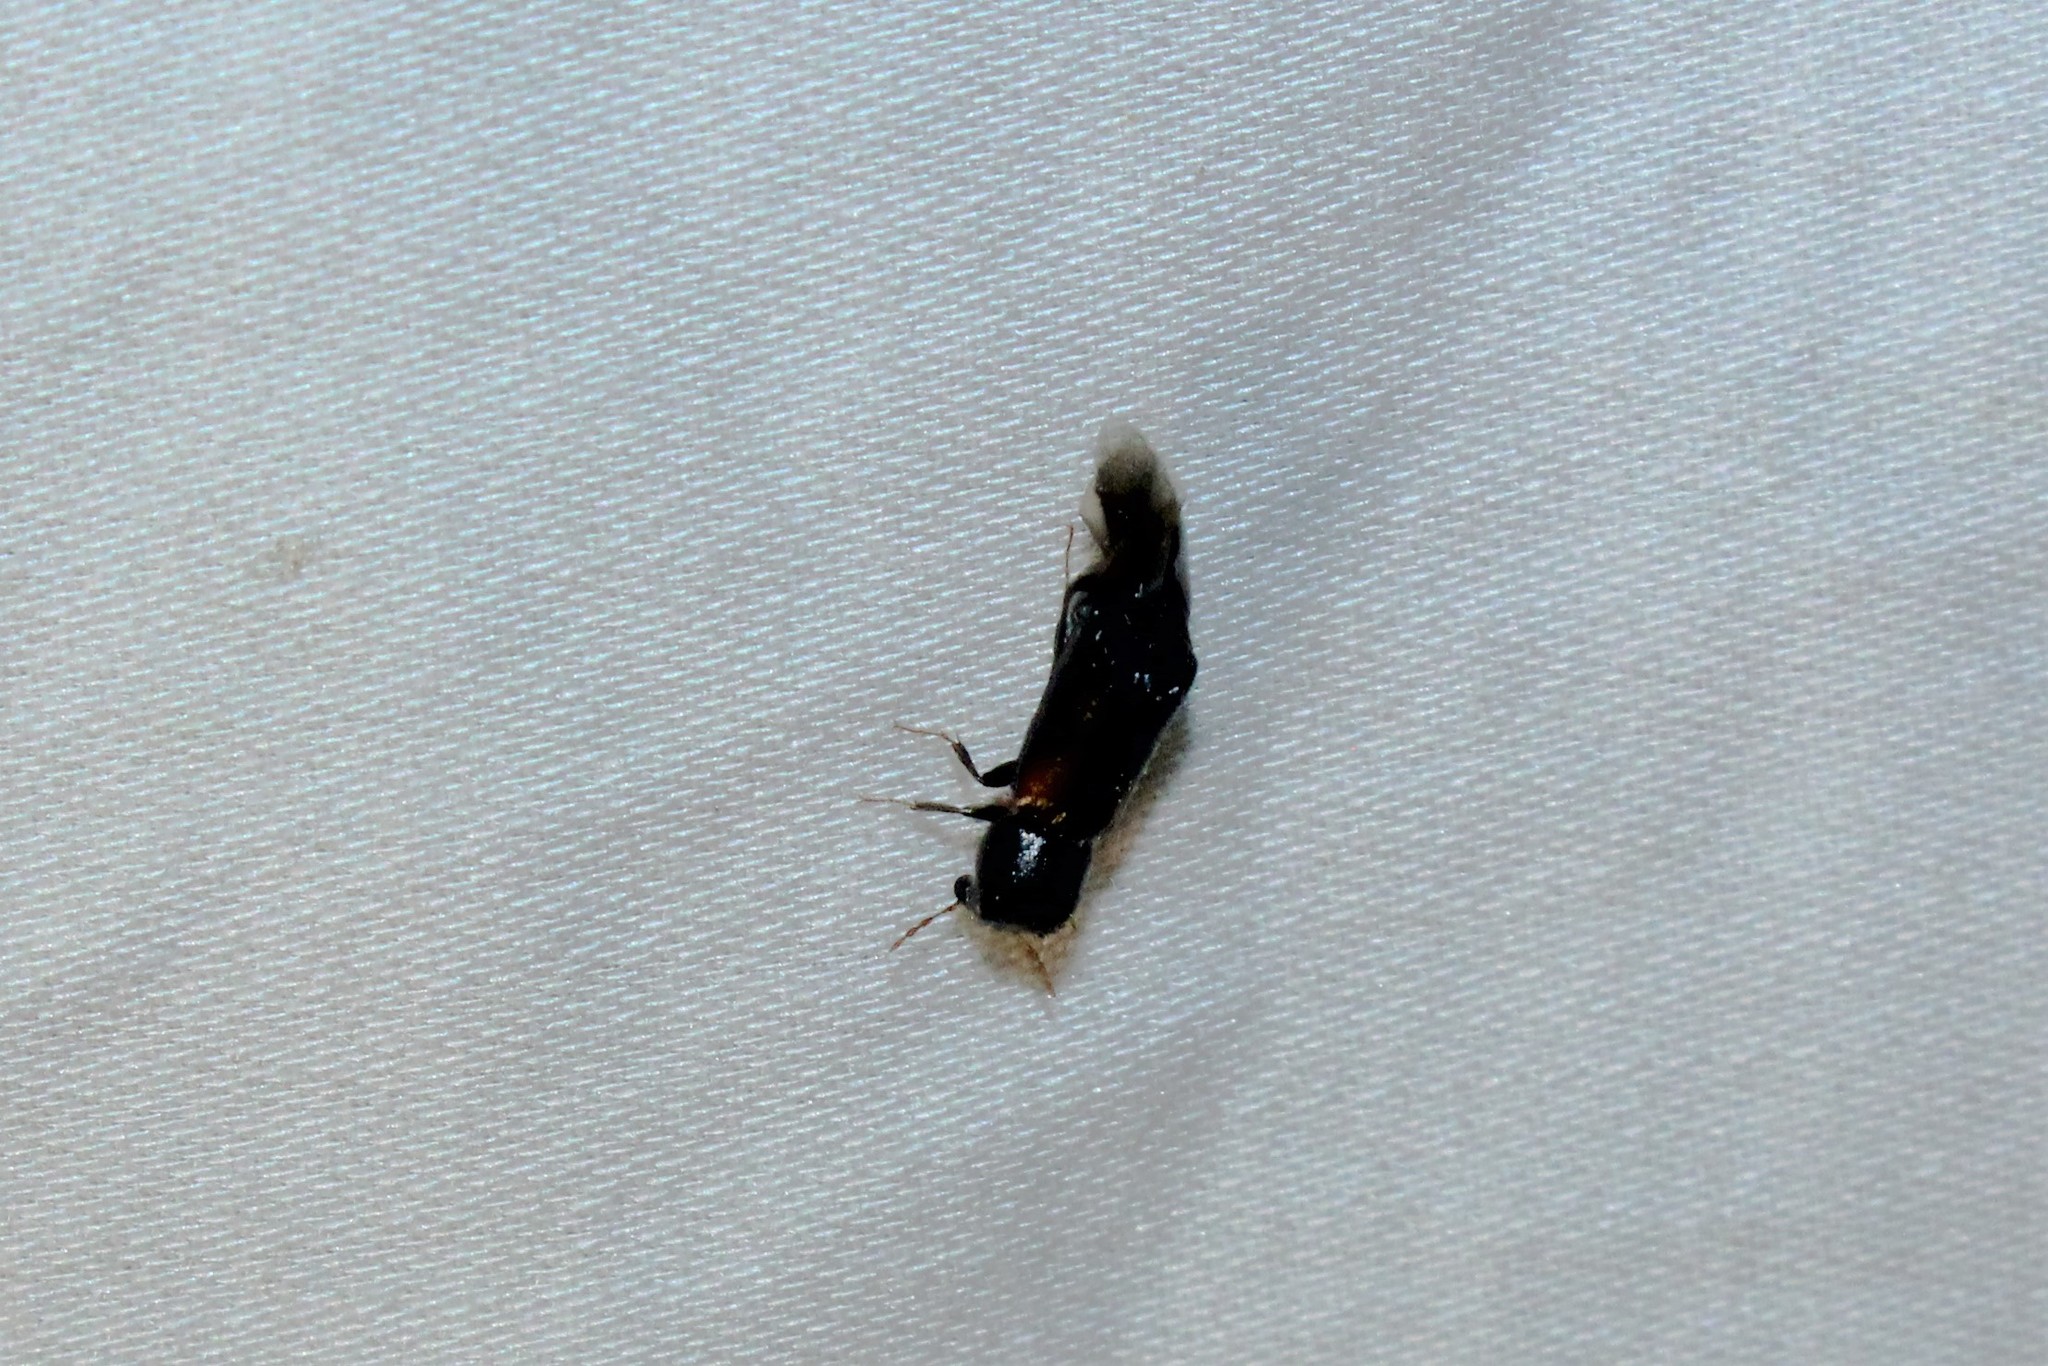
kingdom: Animalia
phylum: Arthropoda
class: Insecta
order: Coleoptera
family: Bostrichidae
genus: Xylobiops
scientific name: Xylobiops basilaris
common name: Red-shouldered bostrichid
